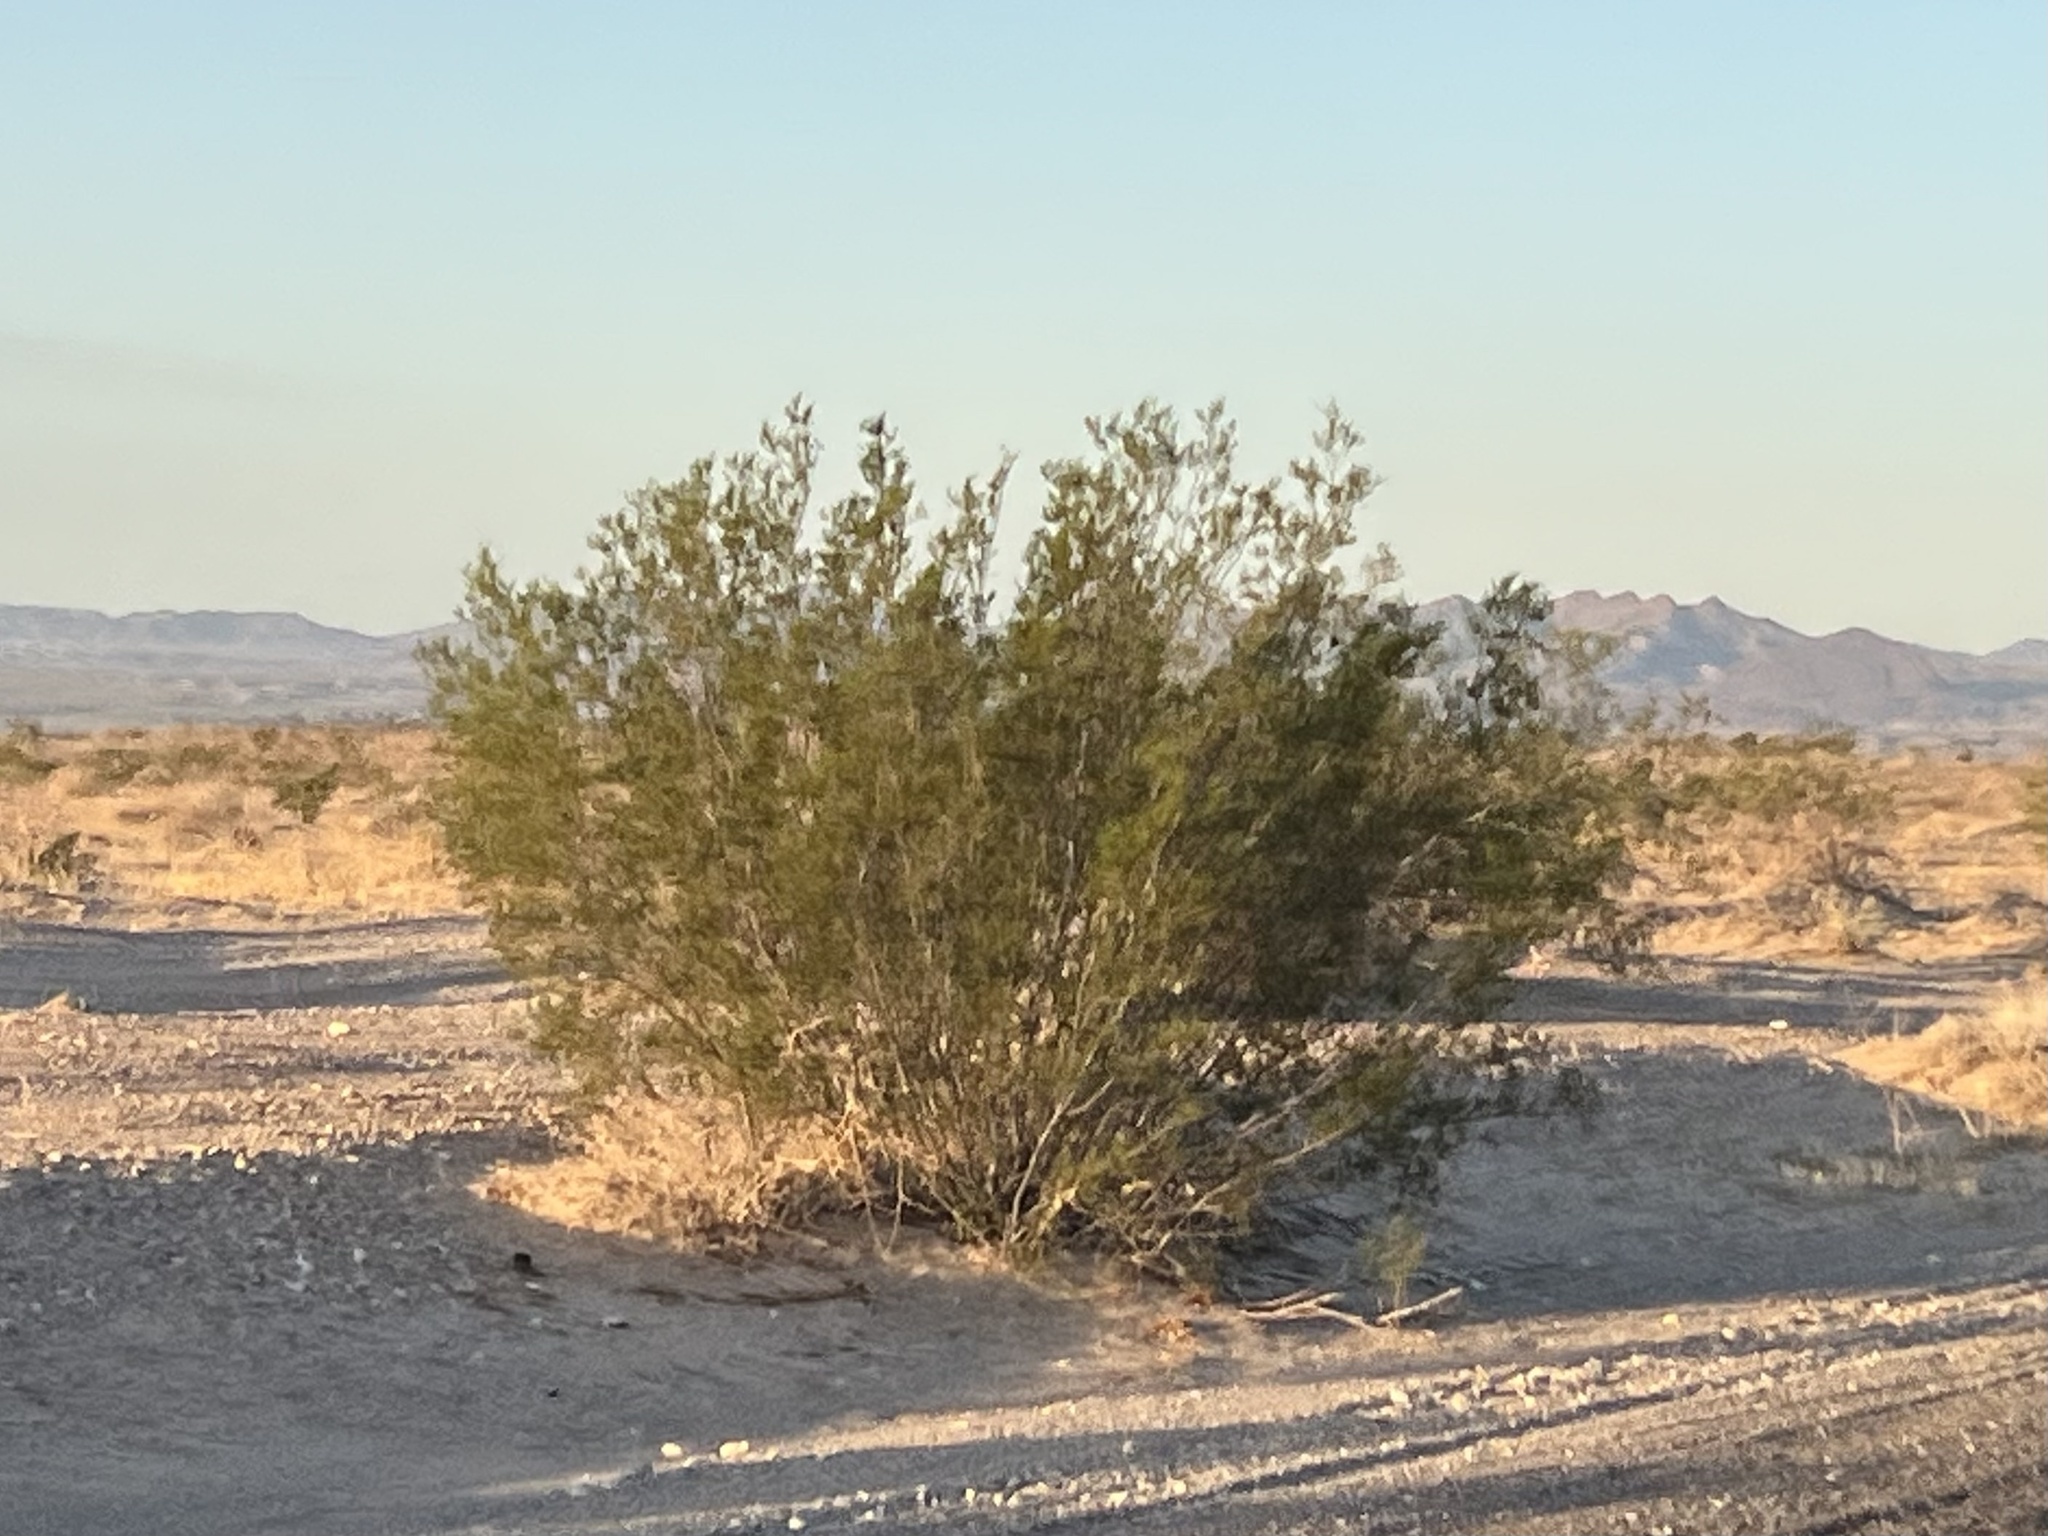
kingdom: Plantae
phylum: Tracheophyta
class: Magnoliopsida
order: Zygophyllales
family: Zygophyllaceae
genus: Larrea
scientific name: Larrea tridentata
